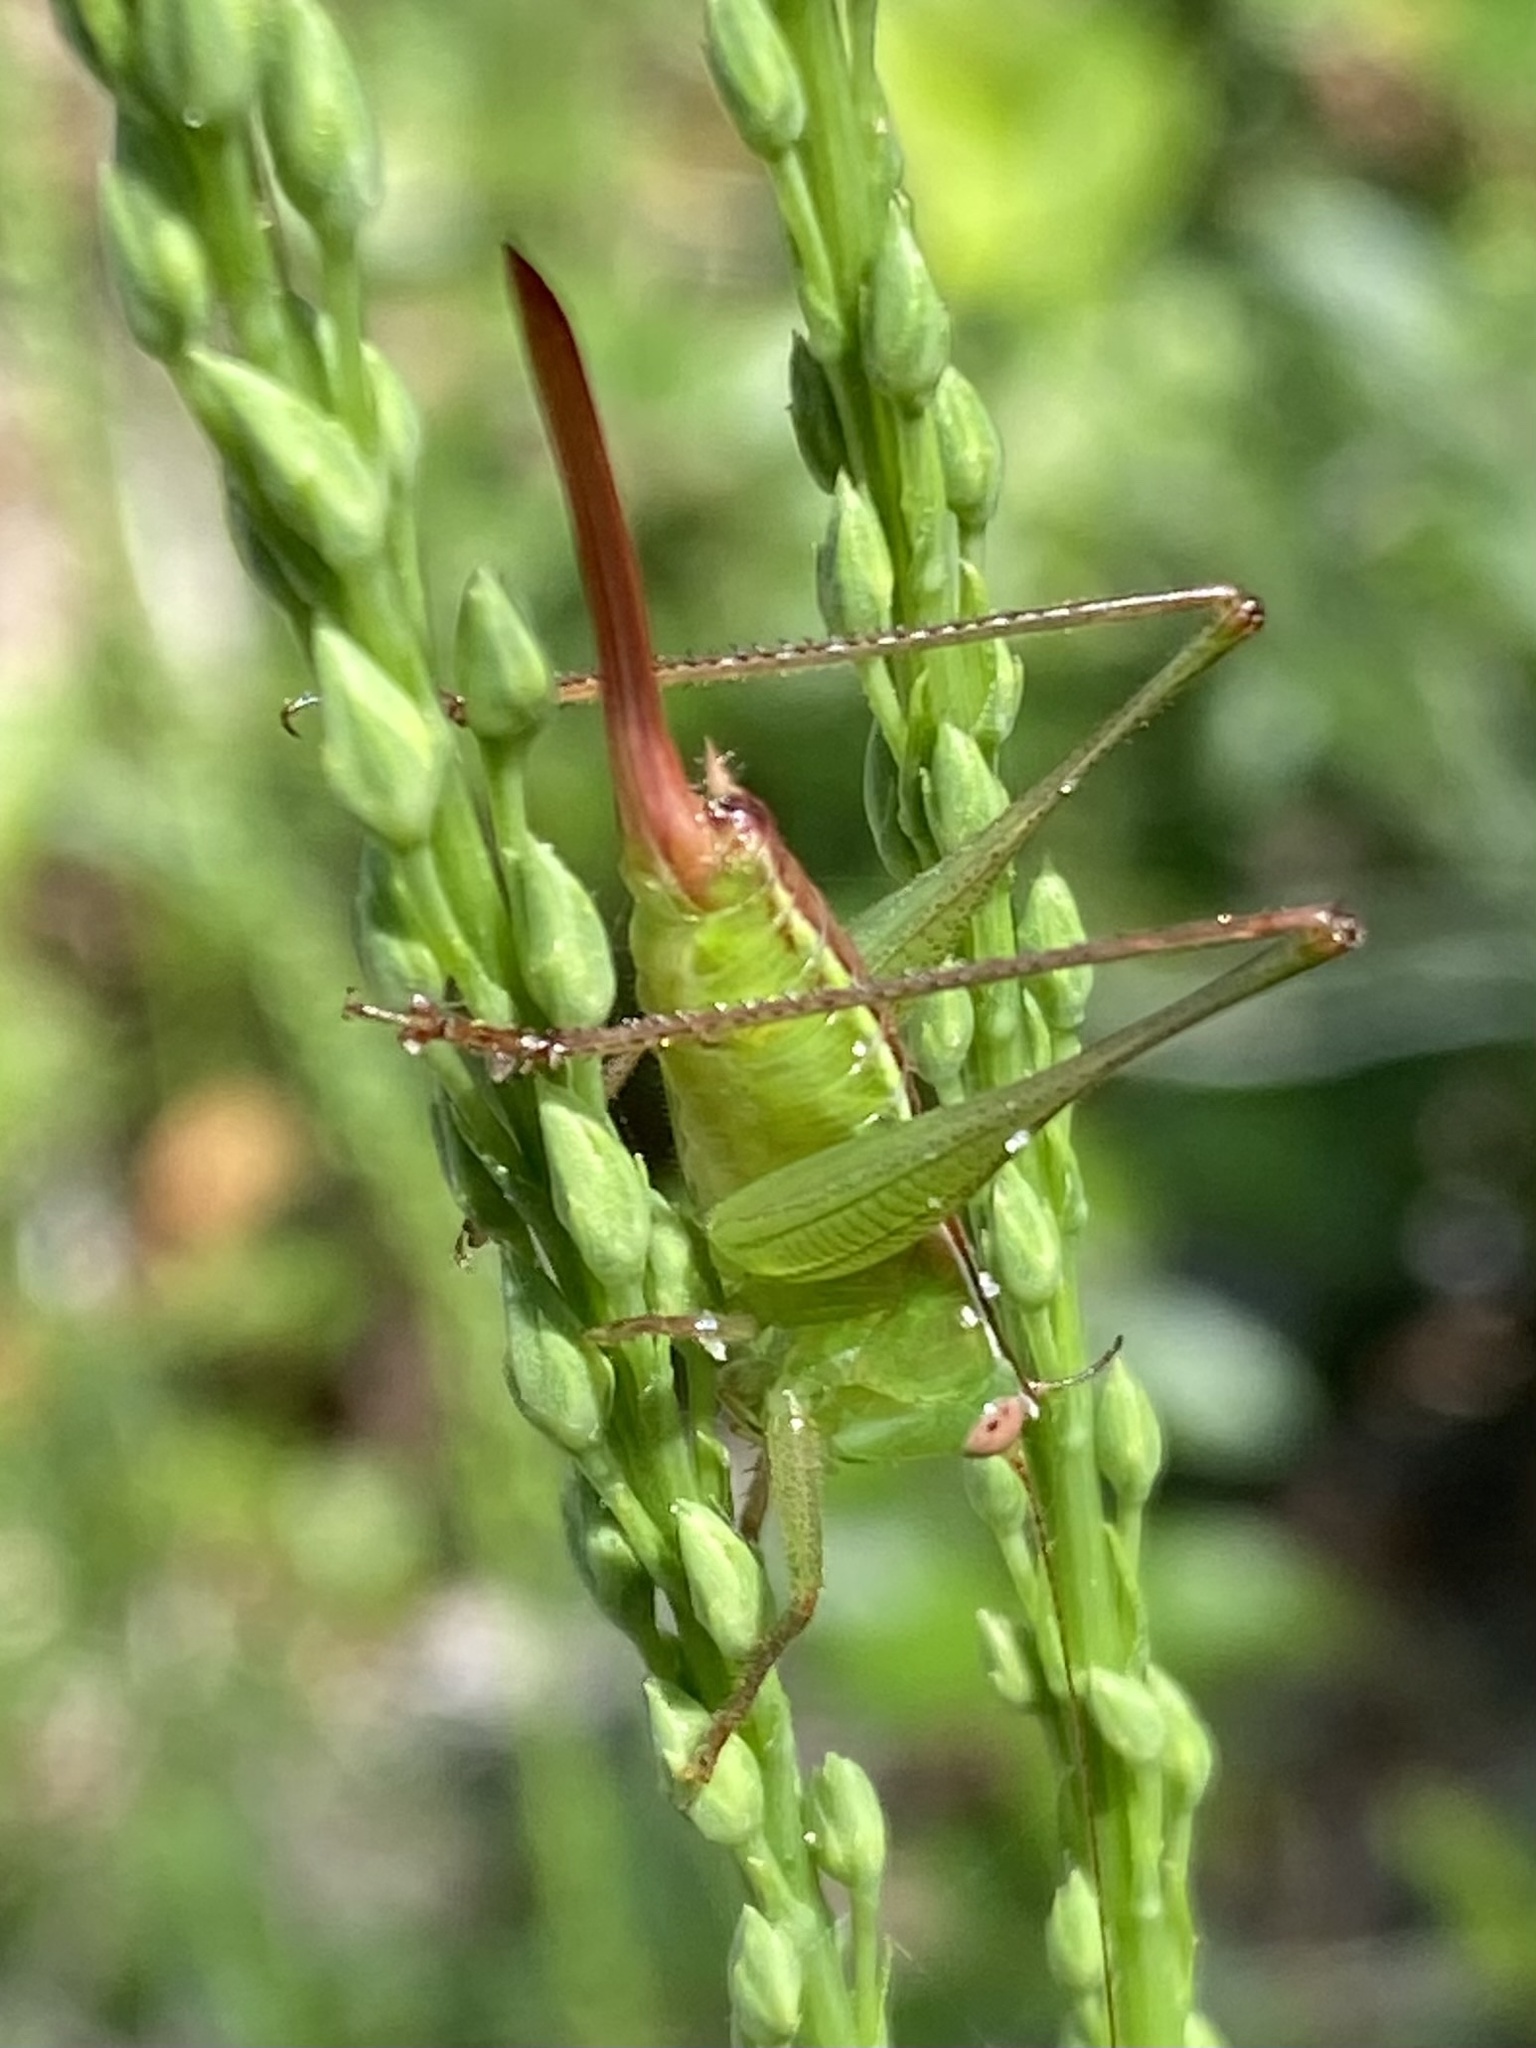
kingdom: Animalia
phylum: Arthropoda
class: Insecta
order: Orthoptera
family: Tettigoniidae
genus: Odontoxiphidium
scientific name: Odontoxiphidium apterum
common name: Wingless meadow katydid
